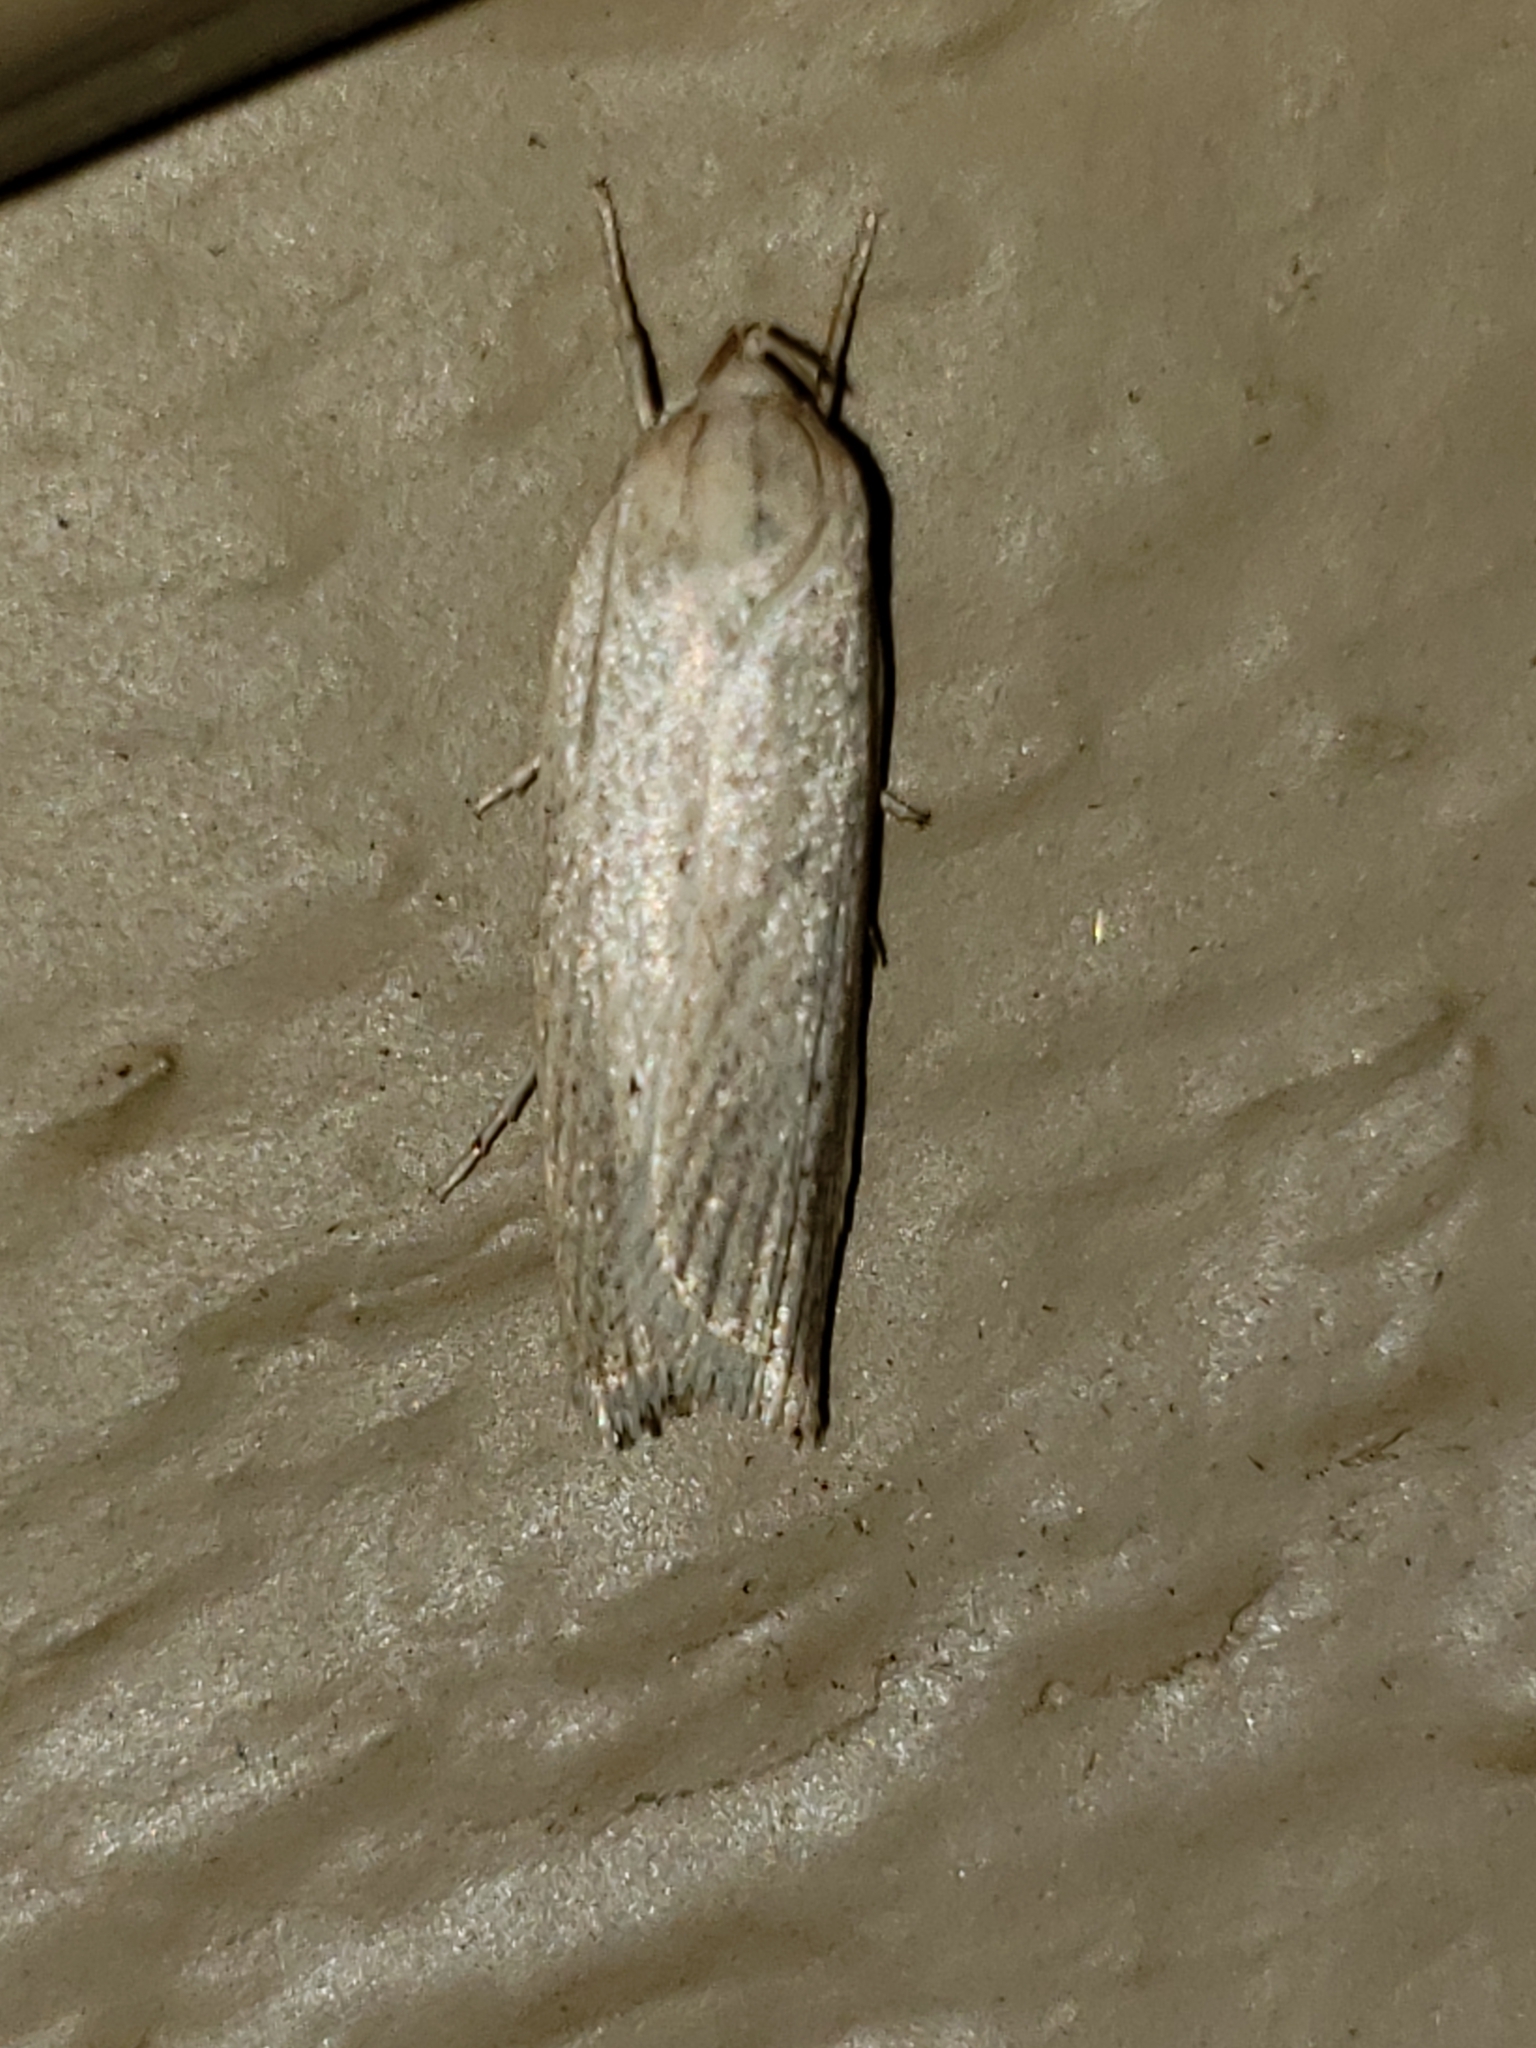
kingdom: Animalia
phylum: Arthropoda
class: Insecta
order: Lepidoptera
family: Depressariidae
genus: Gonioterma
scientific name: Gonioterma mistrella
